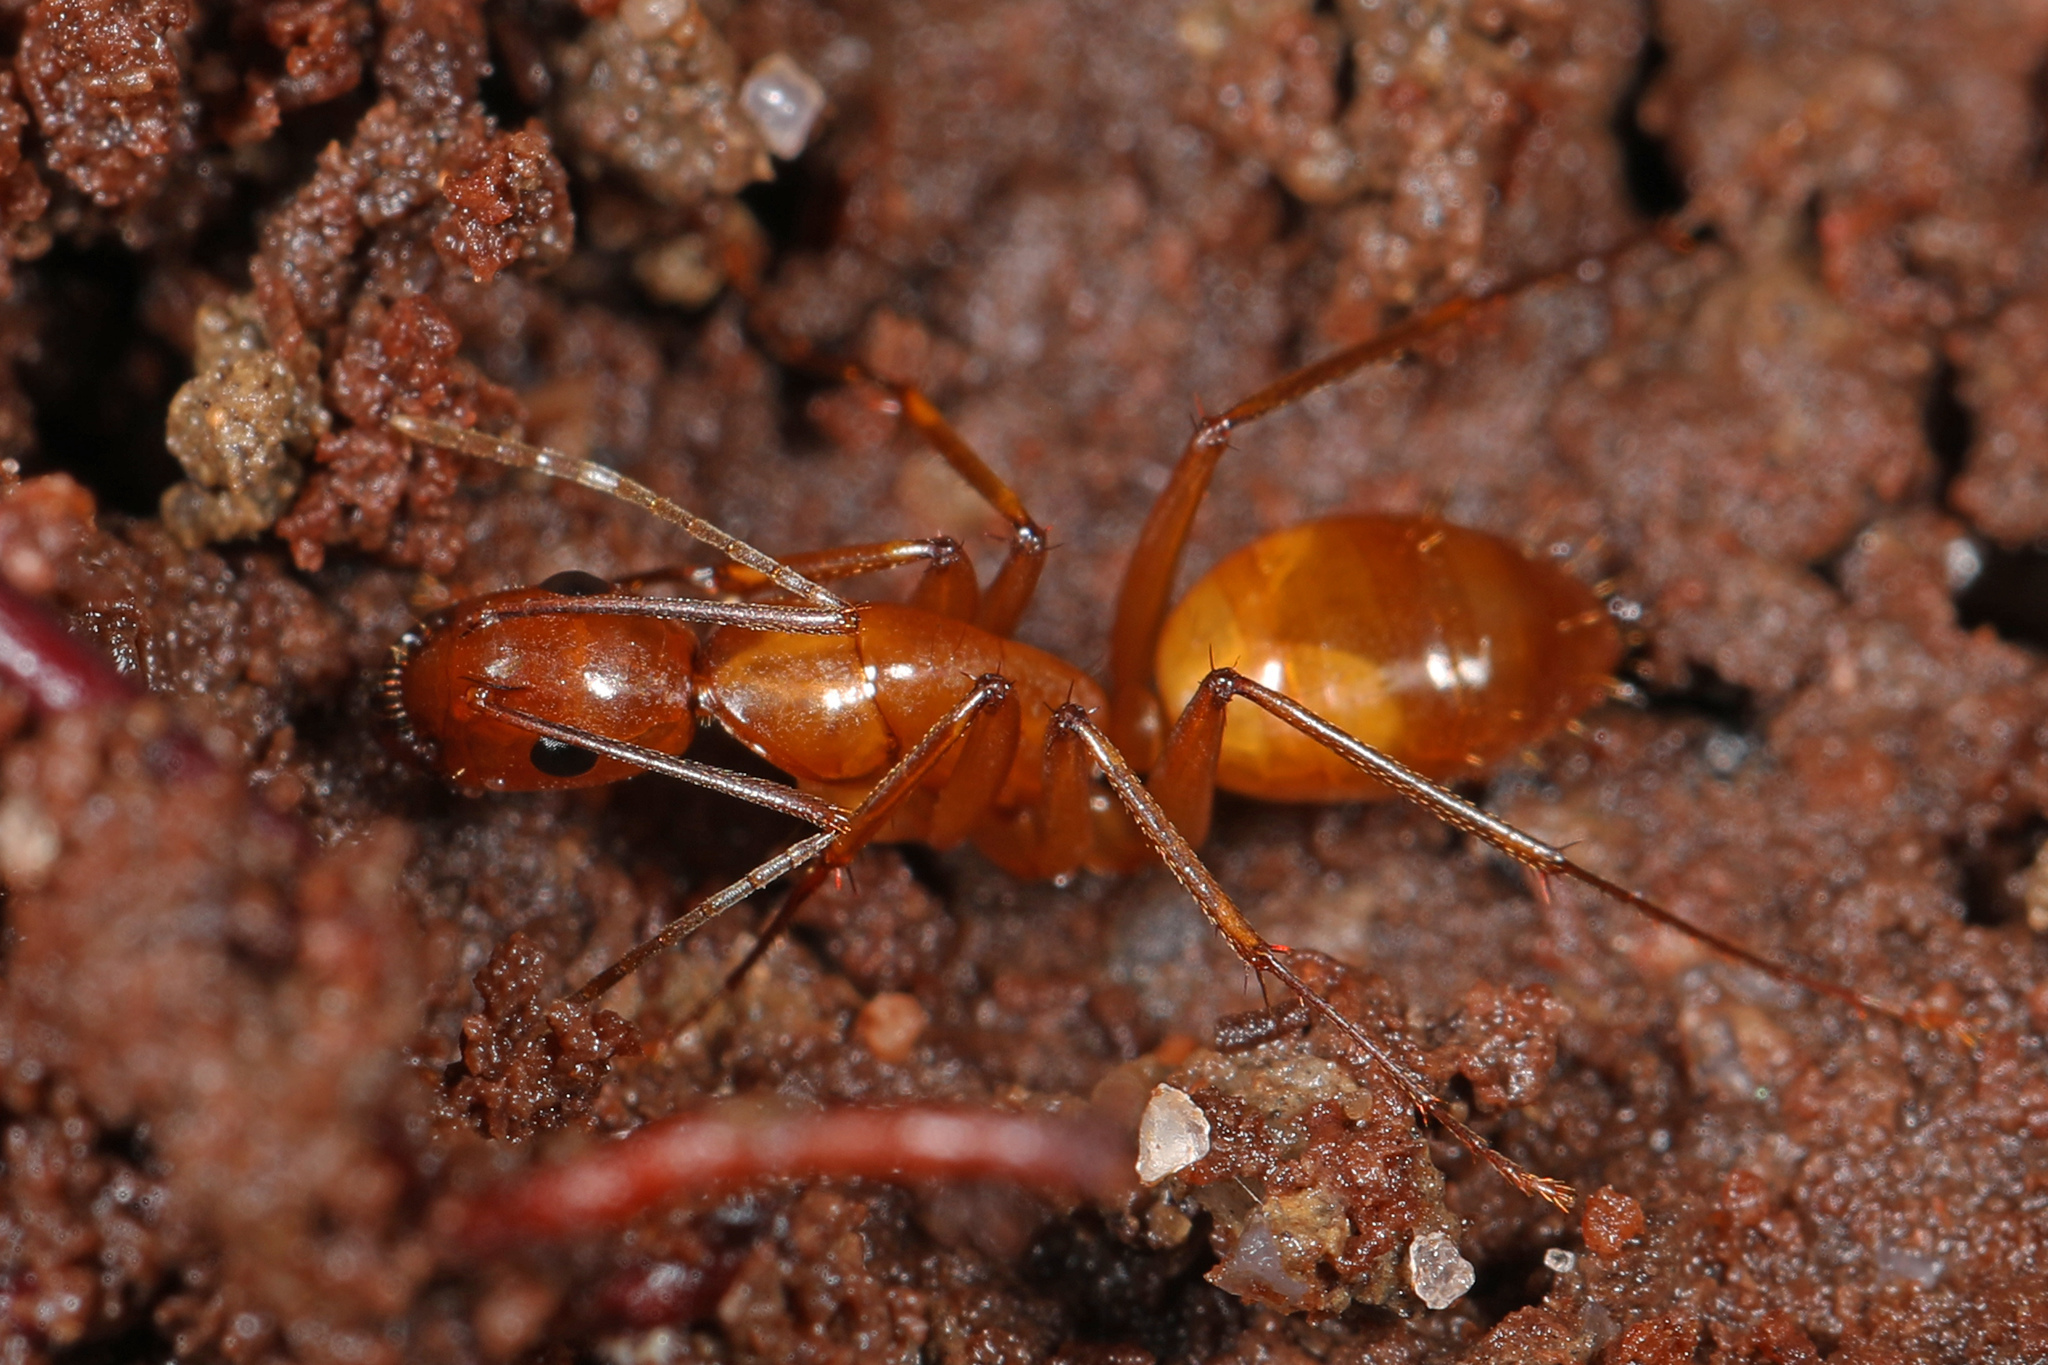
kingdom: Animalia
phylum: Arthropoda
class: Insecta
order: Hymenoptera
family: Formicidae
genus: Camponotus
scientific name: Camponotus castaneus
